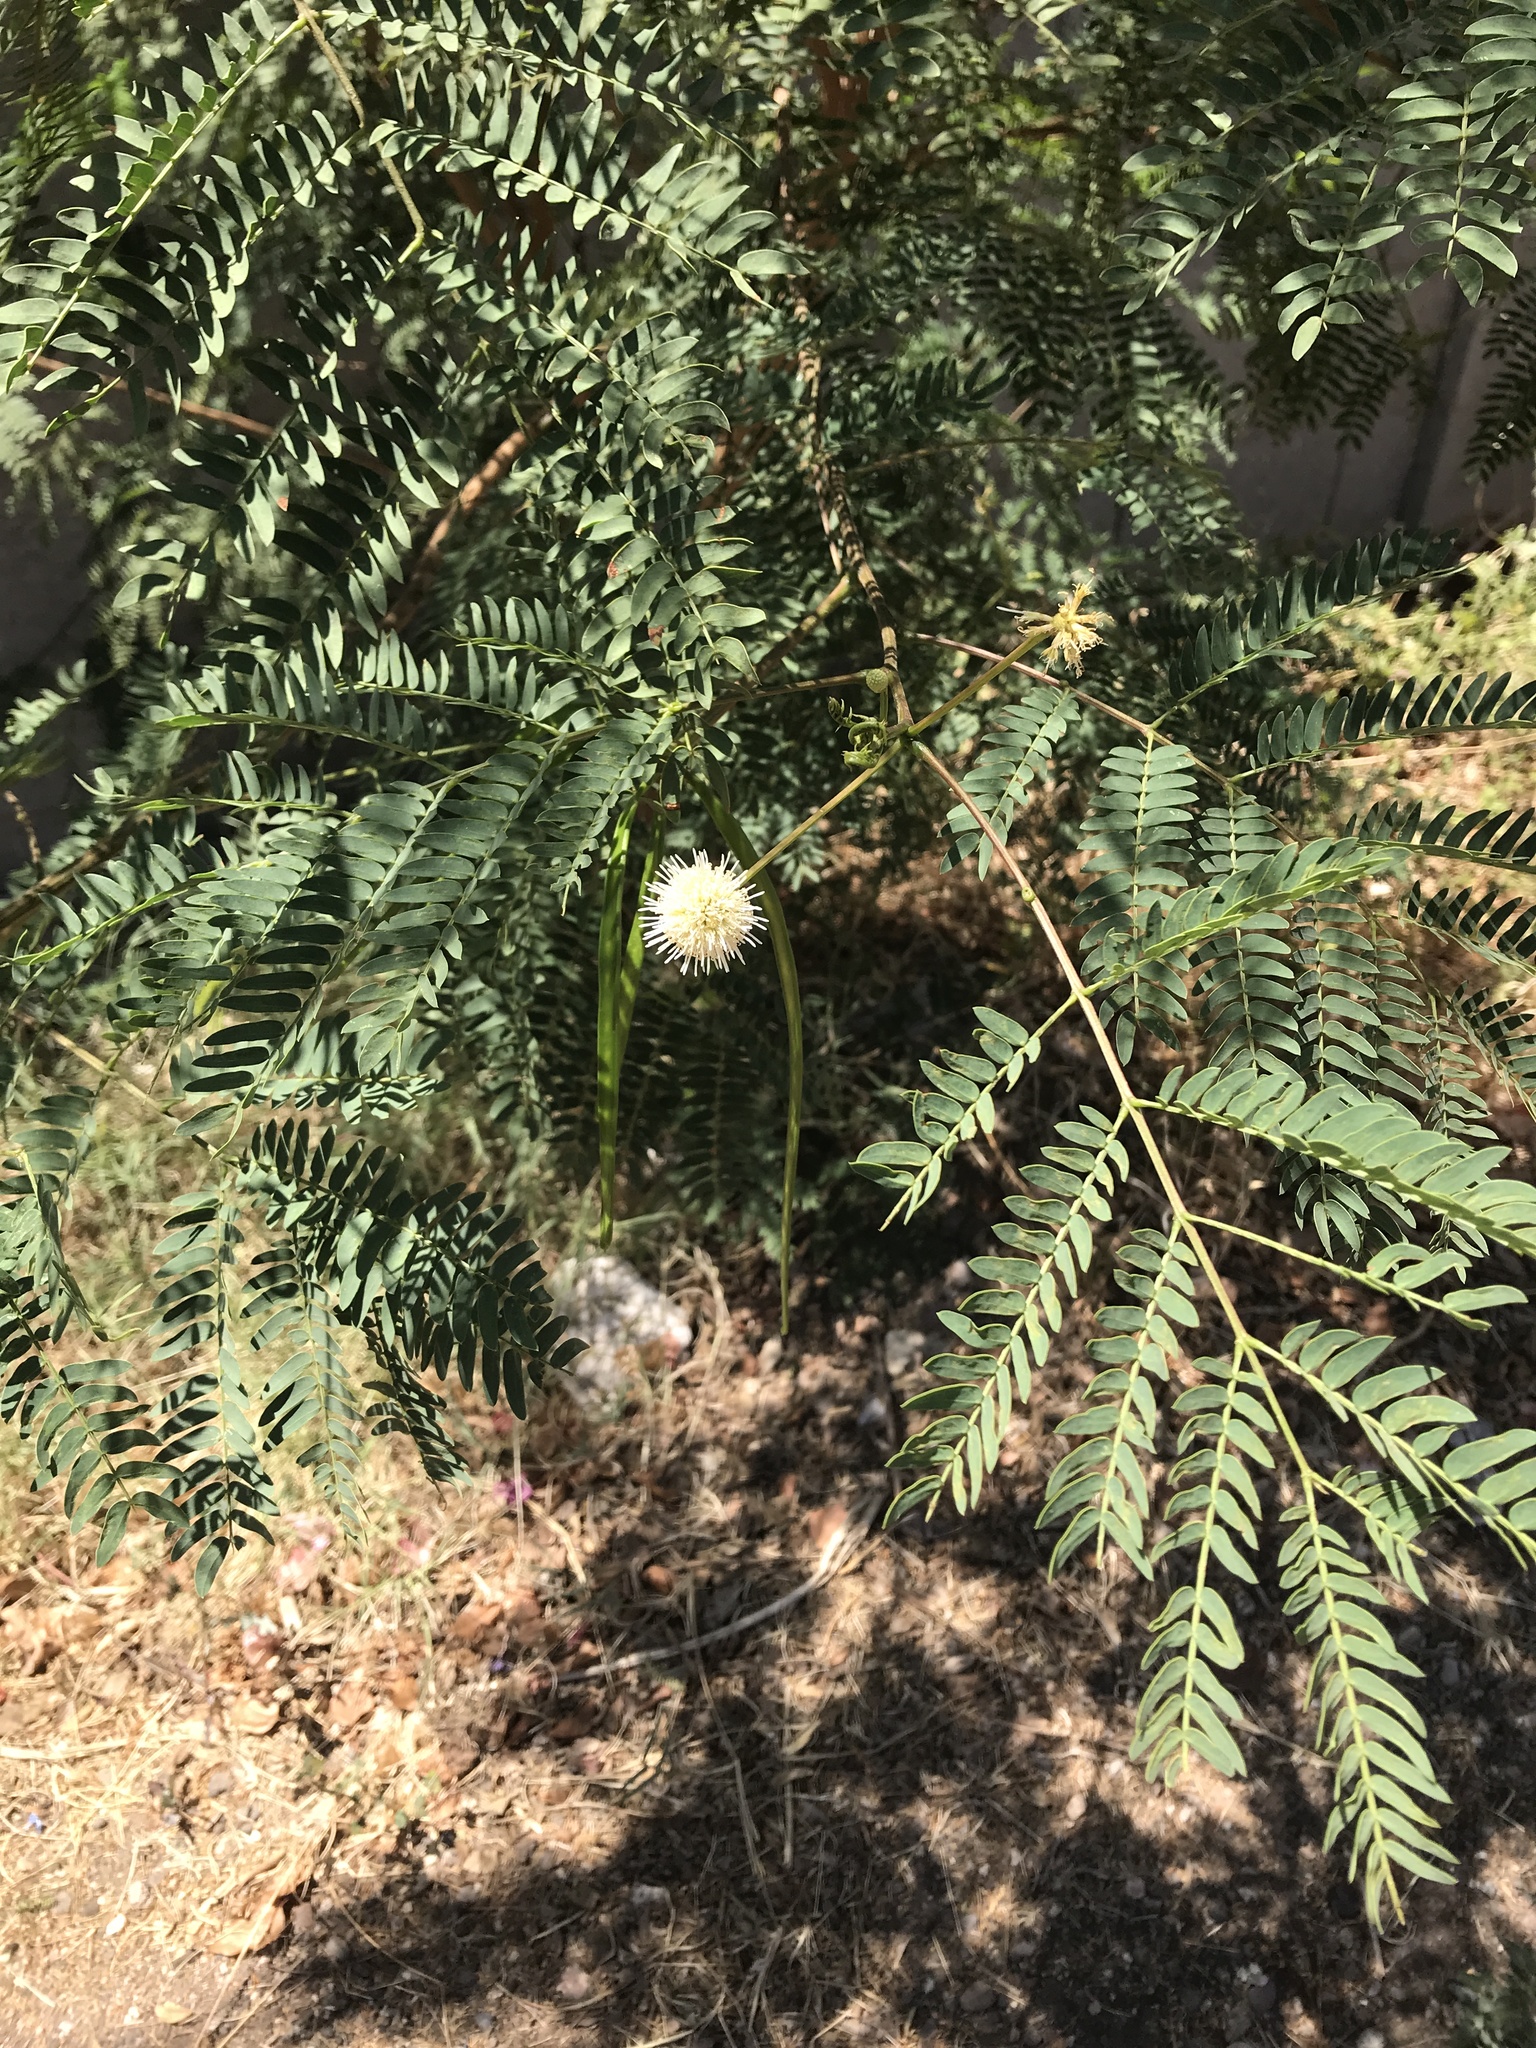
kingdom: Plantae
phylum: Tracheophyta
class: Magnoliopsida
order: Fabales
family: Fabaceae
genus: Leucaena
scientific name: Leucaena leucocephala
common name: White leadtree
